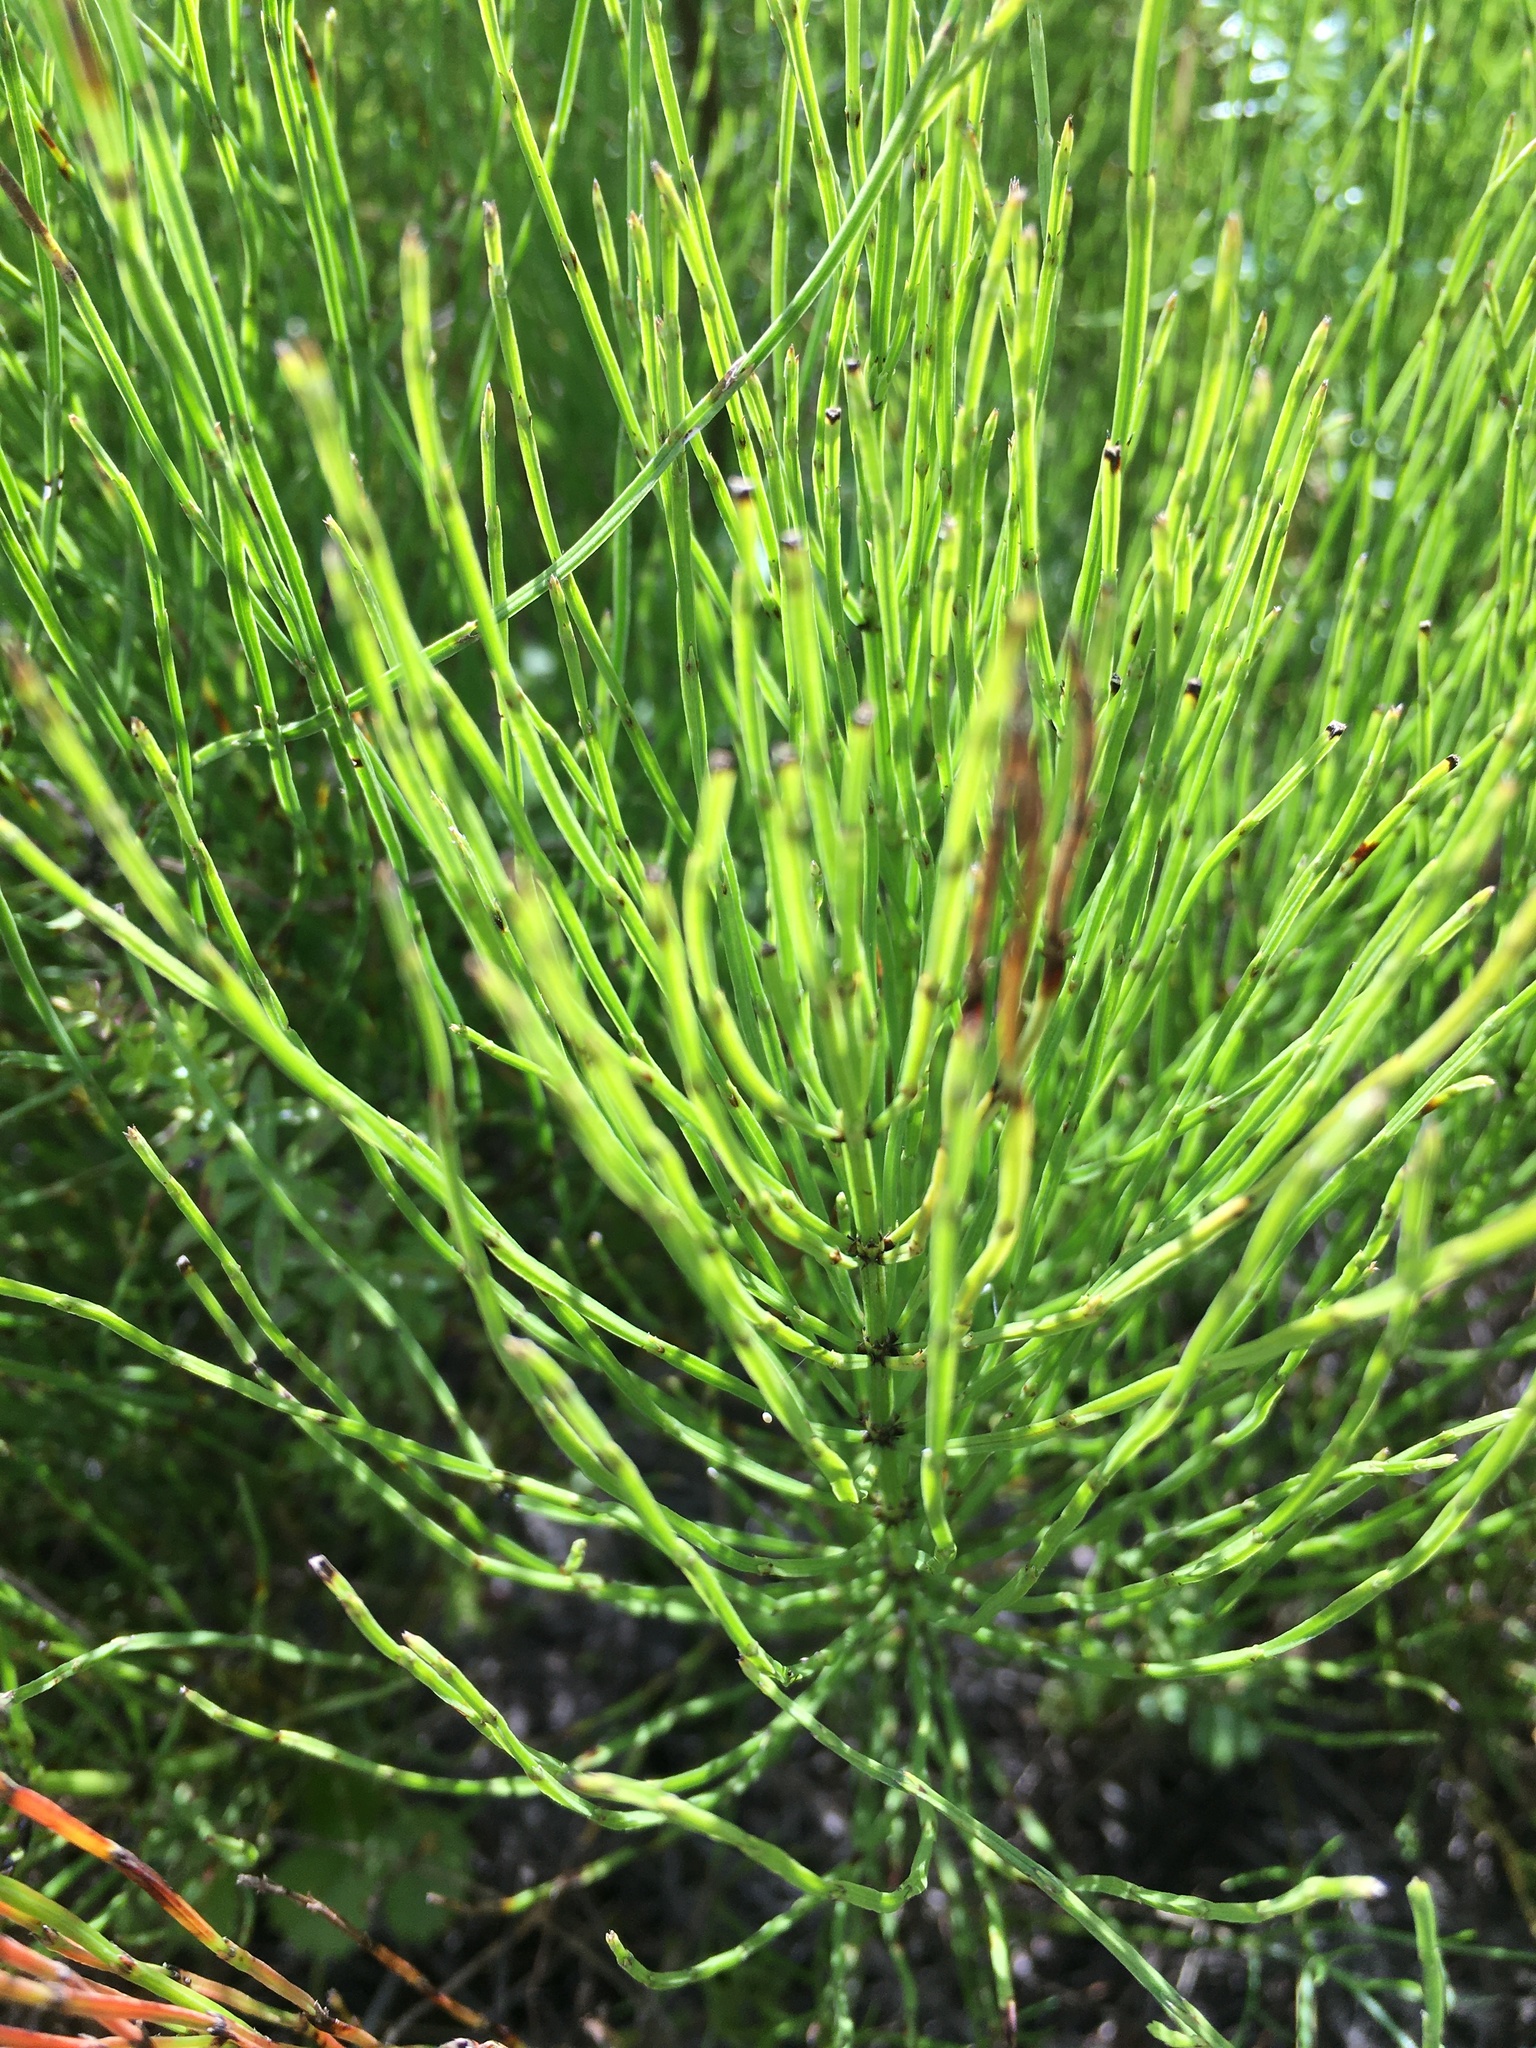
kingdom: Plantae
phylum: Tracheophyta
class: Polypodiopsida
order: Equisetales
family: Equisetaceae
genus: Equisetum
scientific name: Equisetum arvense
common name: Field horsetail
